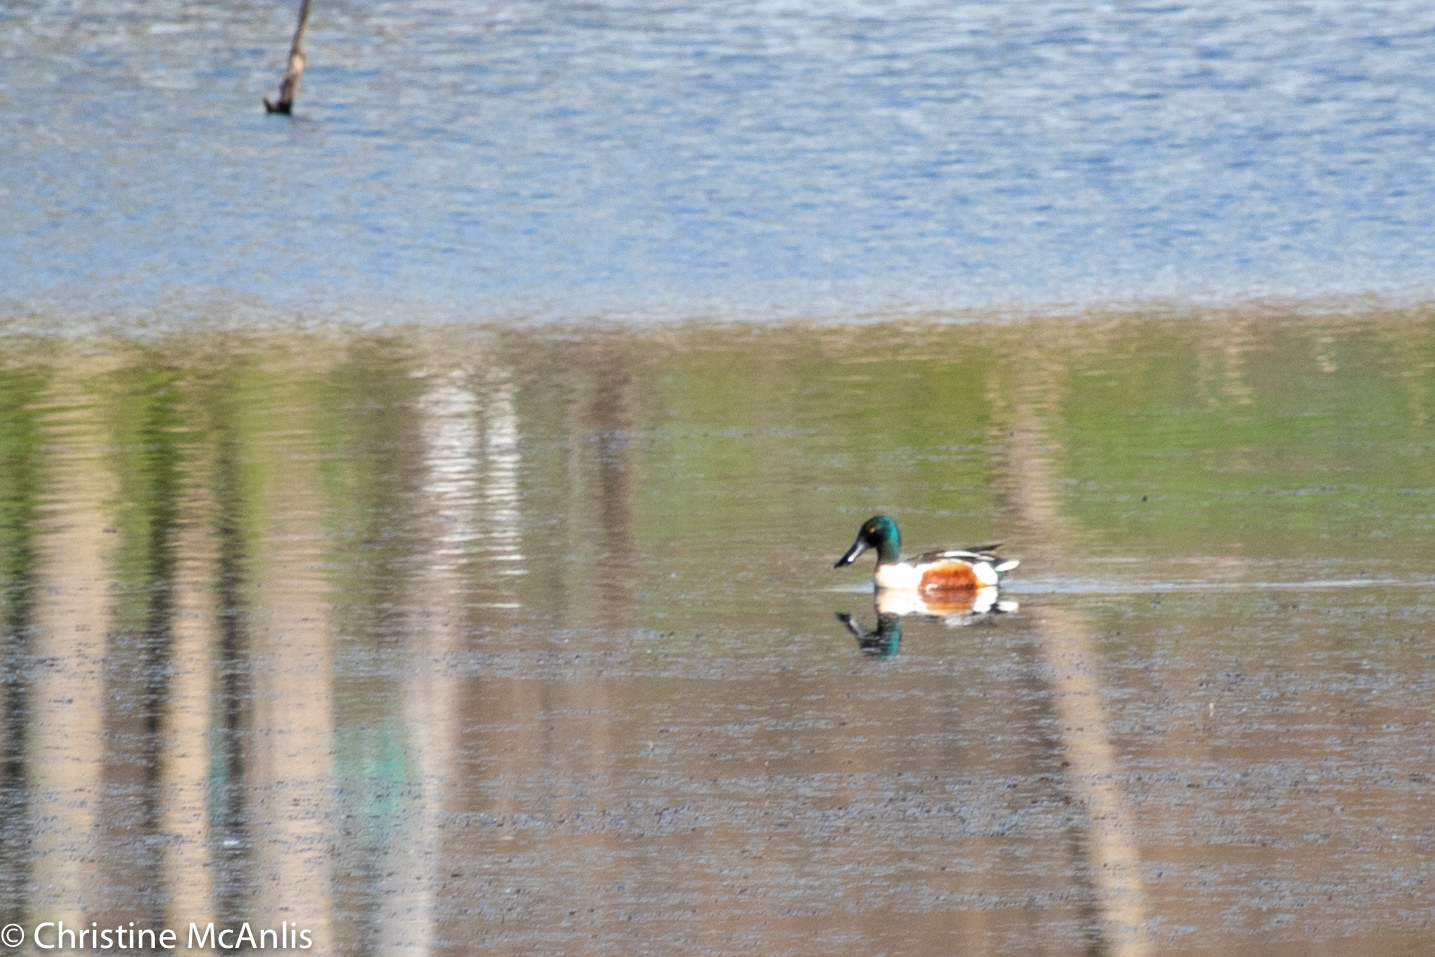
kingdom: Animalia
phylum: Chordata
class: Aves
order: Anseriformes
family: Anatidae
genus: Spatula
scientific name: Spatula clypeata
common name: Northern shoveler
